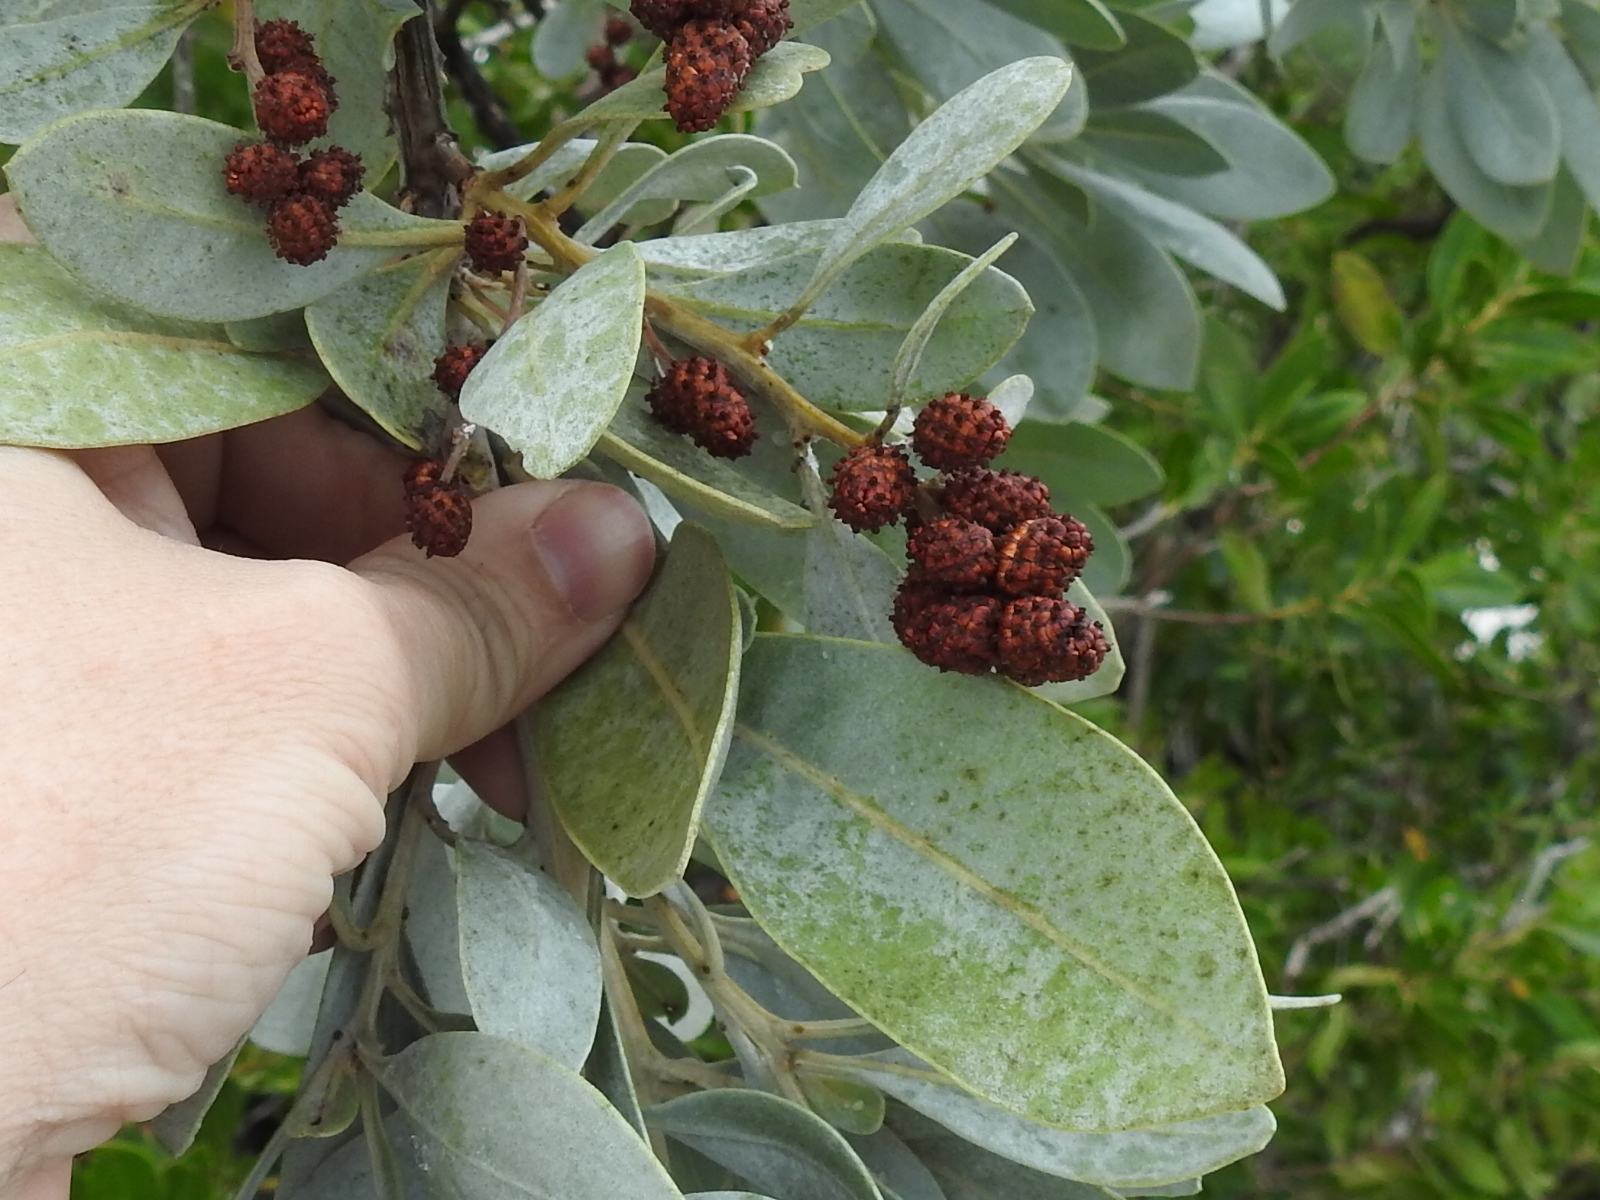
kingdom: Plantae
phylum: Tracheophyta
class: Magnoliopsida
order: Myrtales
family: Combretaceae
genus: Conocarpus
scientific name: Conocarpus erectus
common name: Button mangrove
